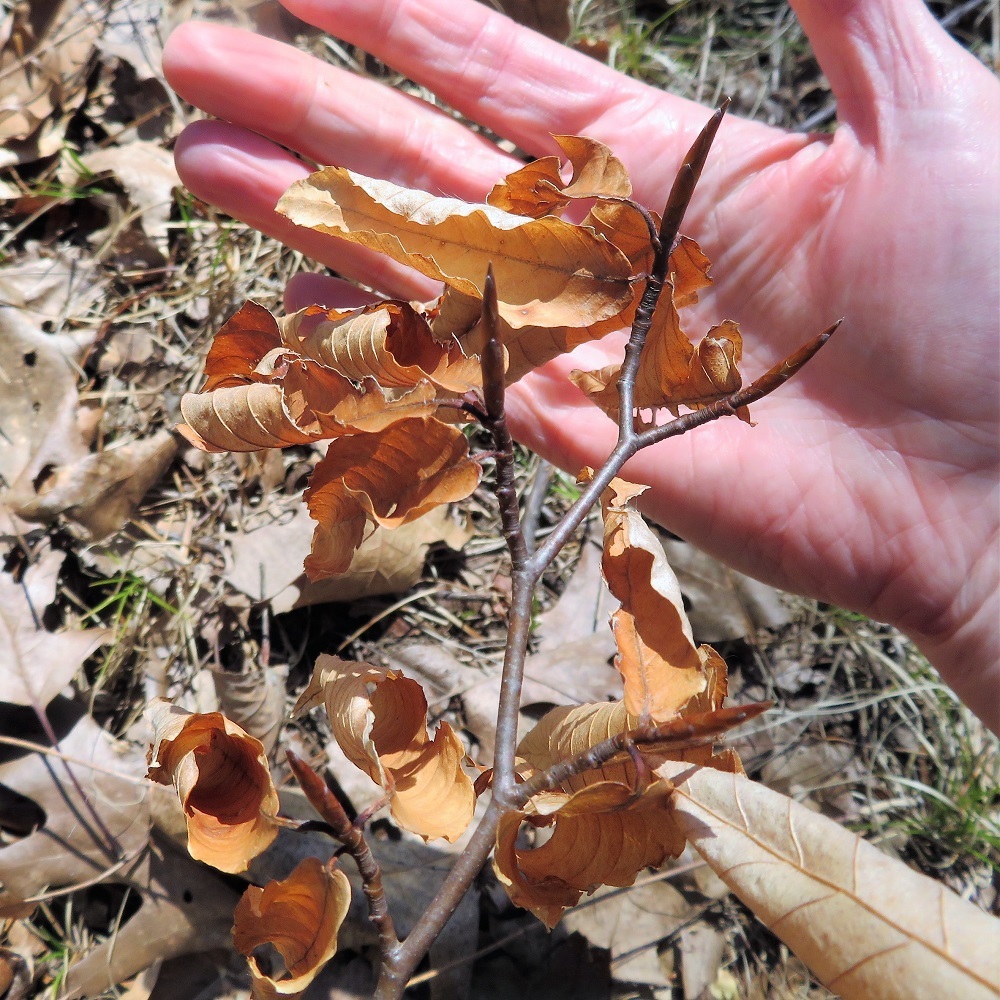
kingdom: Plantae
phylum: Tracheophyta
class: Magnoliopsida
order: Fagales
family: Fagaceae
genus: Fagus
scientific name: Fagus grandifolia
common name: American beech
